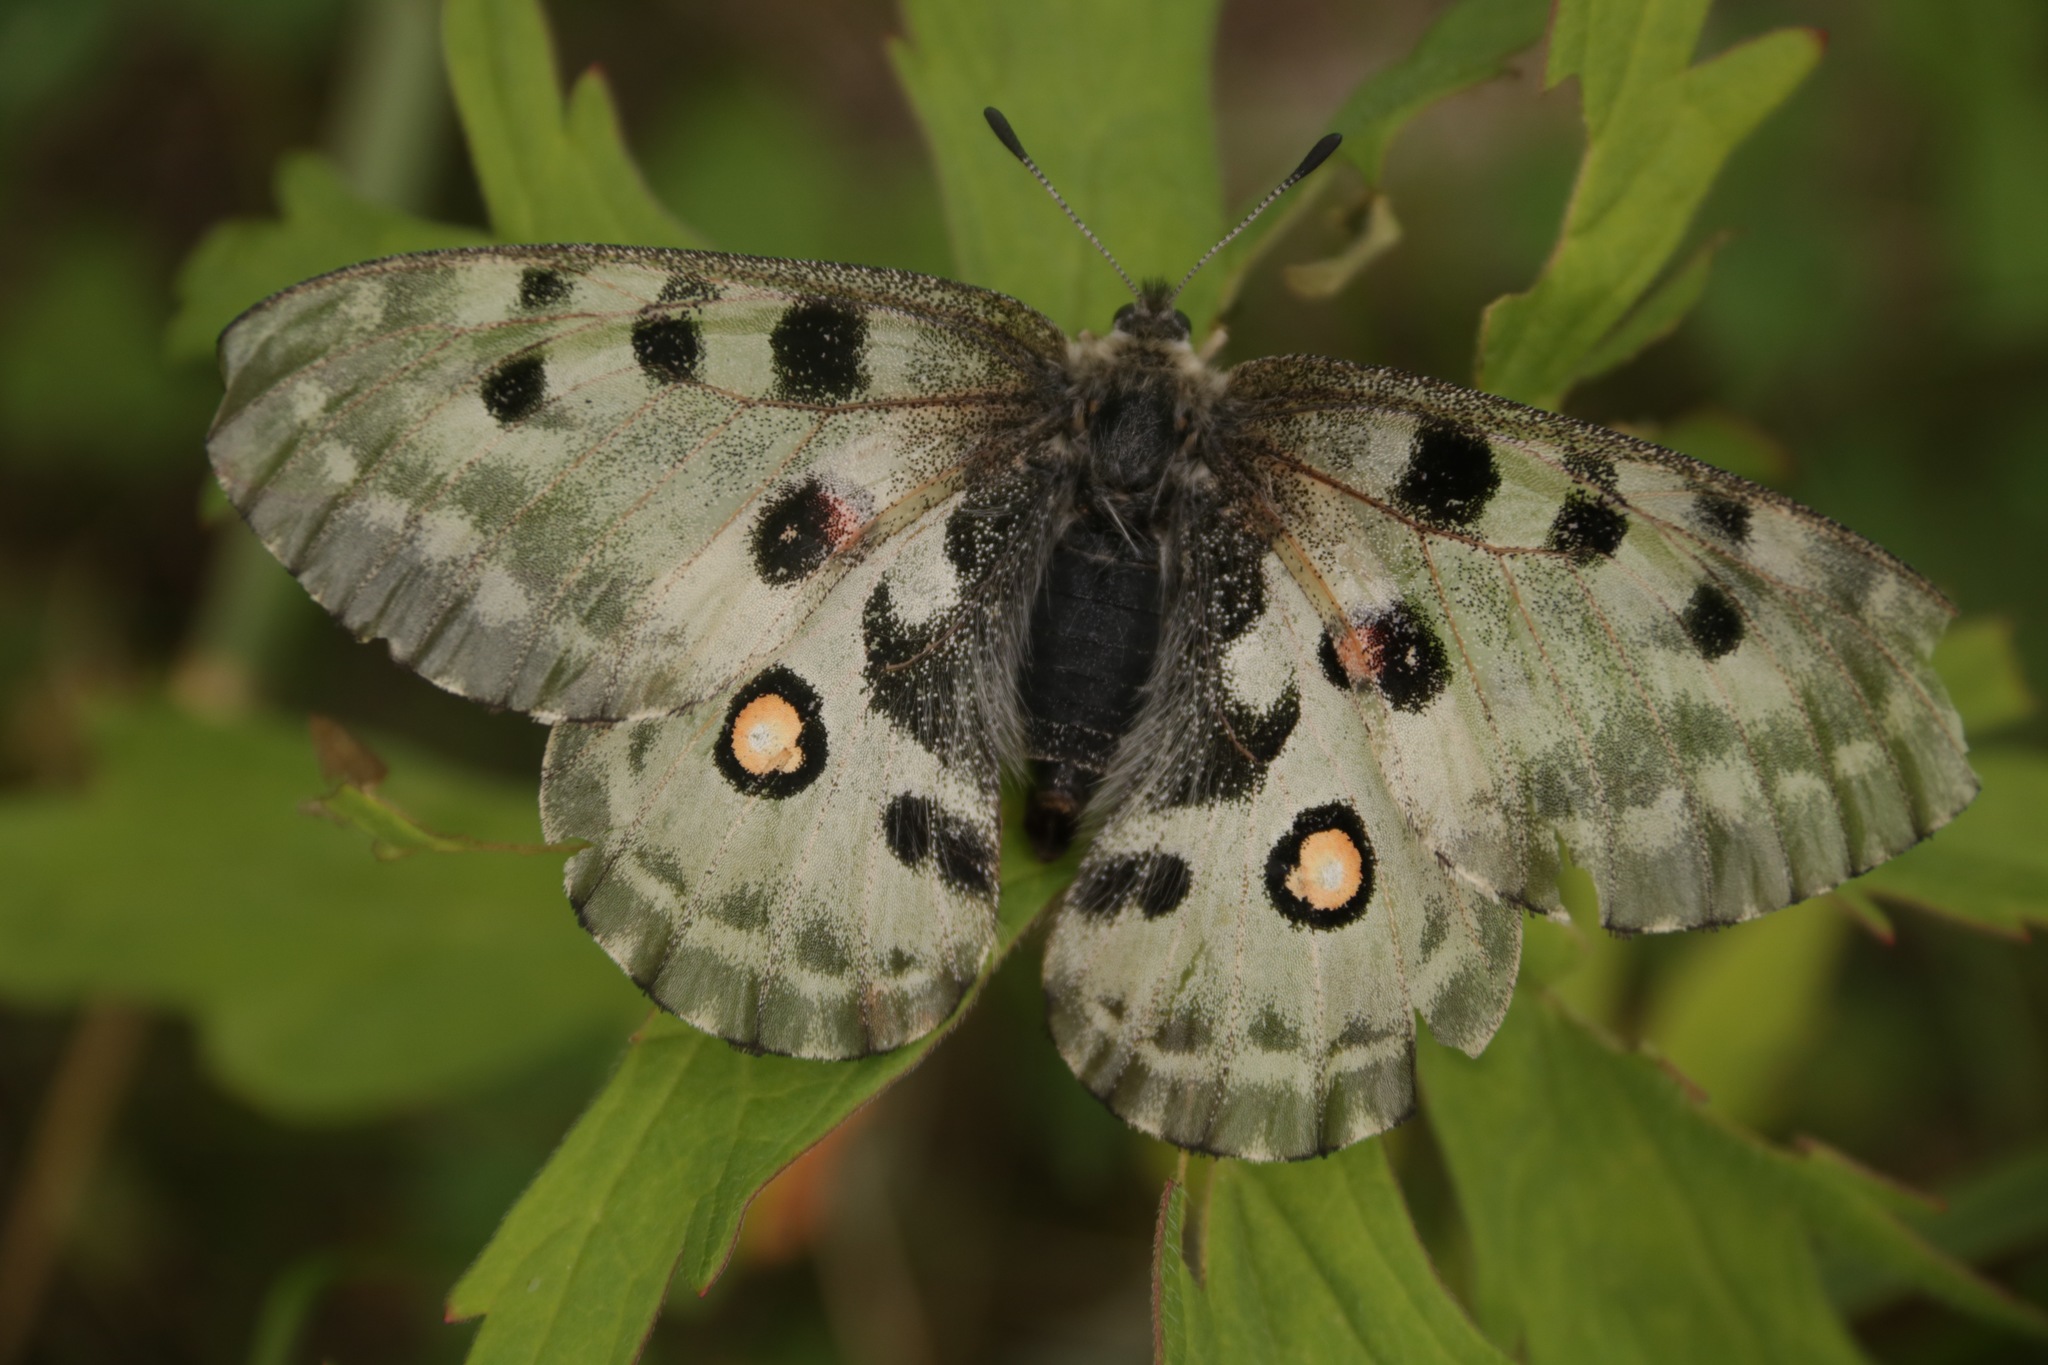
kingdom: Animalia
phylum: Arthropoda
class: Insecta
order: Lepidoptera
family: Papilionidae
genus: Parnassius
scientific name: Parnassius nomion
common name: Nomion apollo
